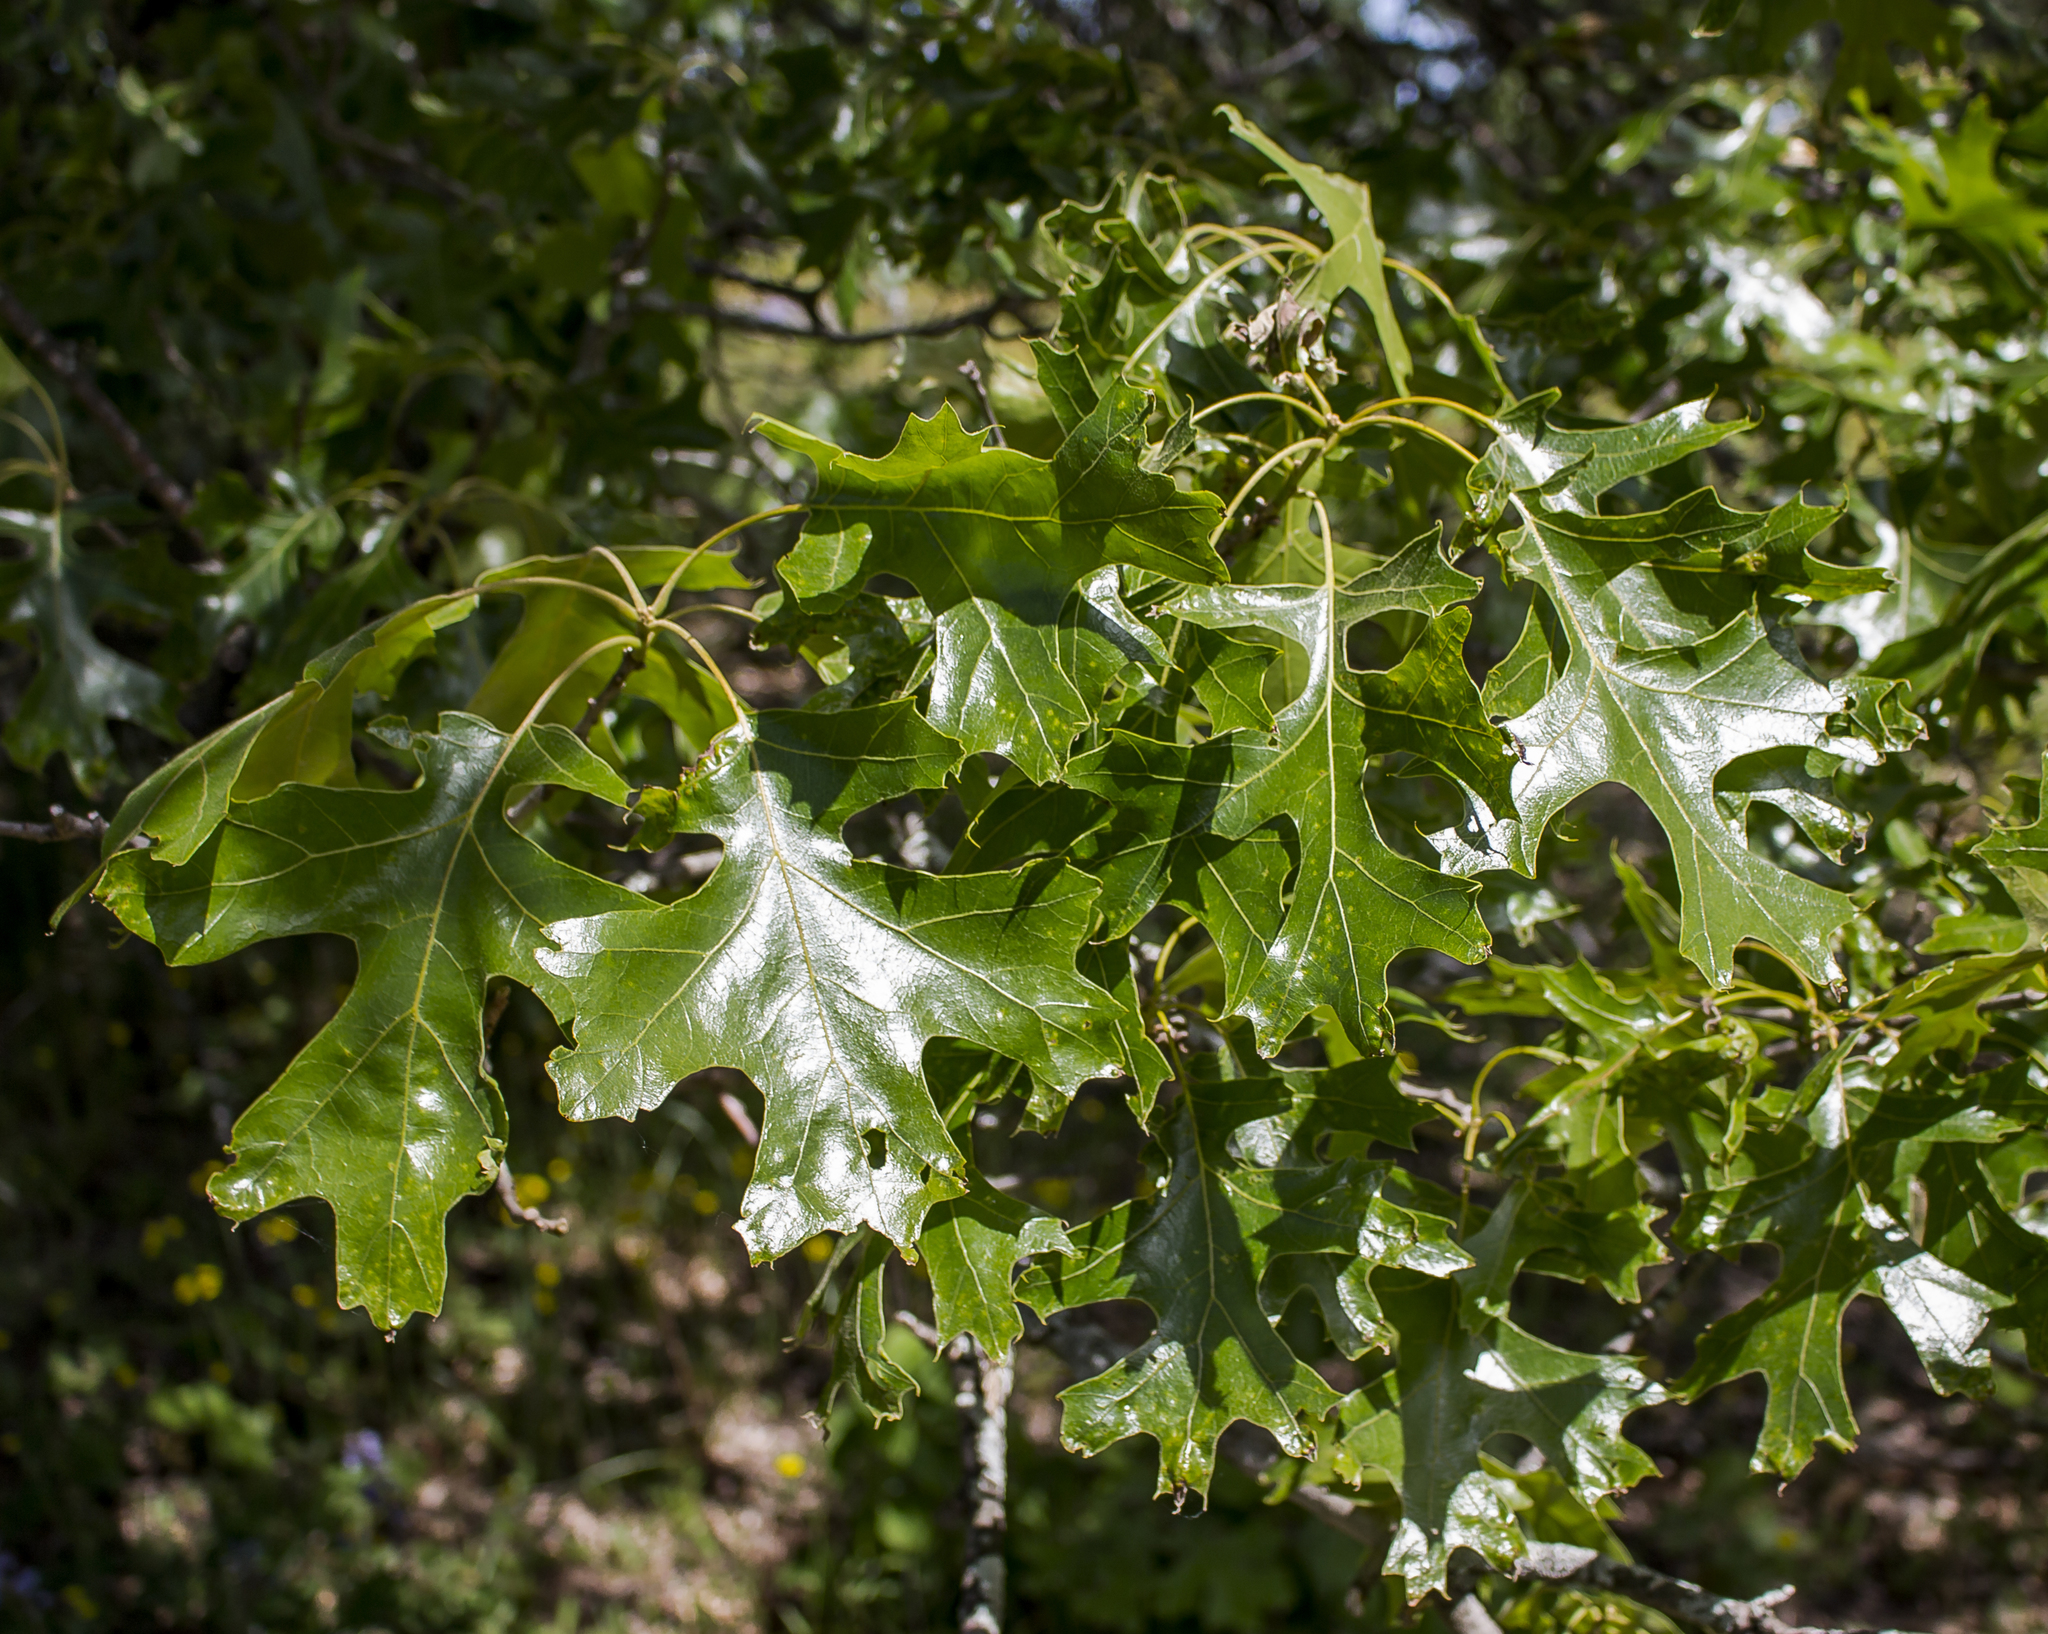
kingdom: Plantae
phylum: Tracheophyta
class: Magnoliopsida
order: Fagales
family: Fagaceae
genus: Quercus
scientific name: Quercus velutina
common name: Black oak
